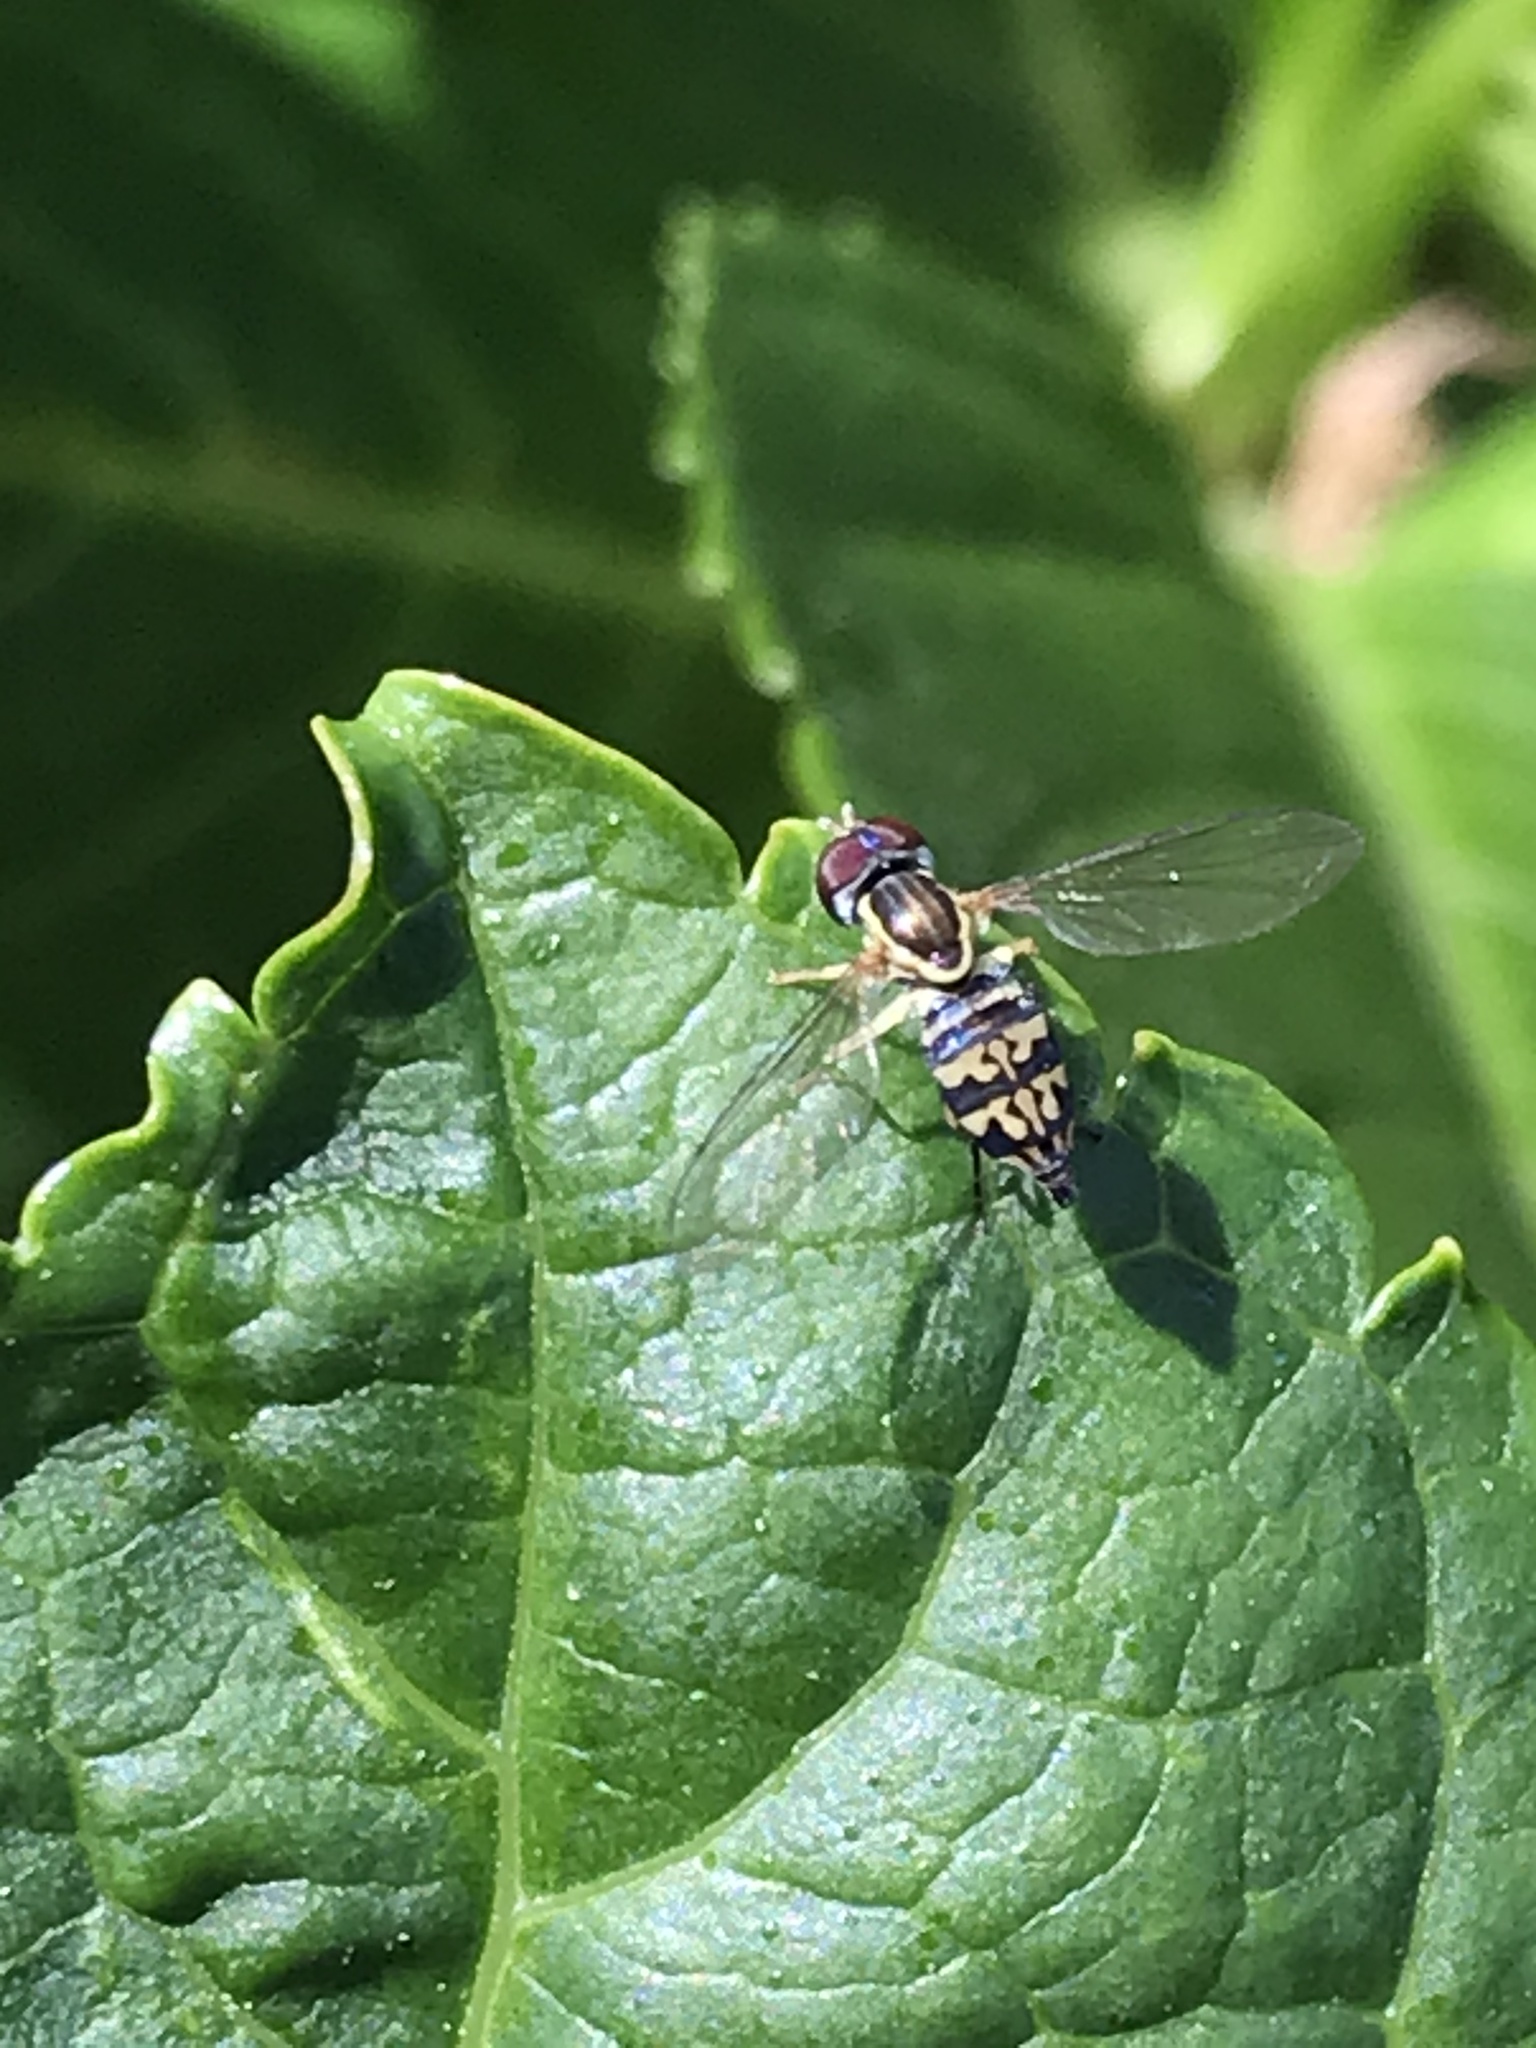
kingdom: Animalia
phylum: Arthropoda
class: Insecta
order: Diptera
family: Syrphidae
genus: Toxomerus
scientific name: Toxomerus geminatus
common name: Eastern calligrapher
